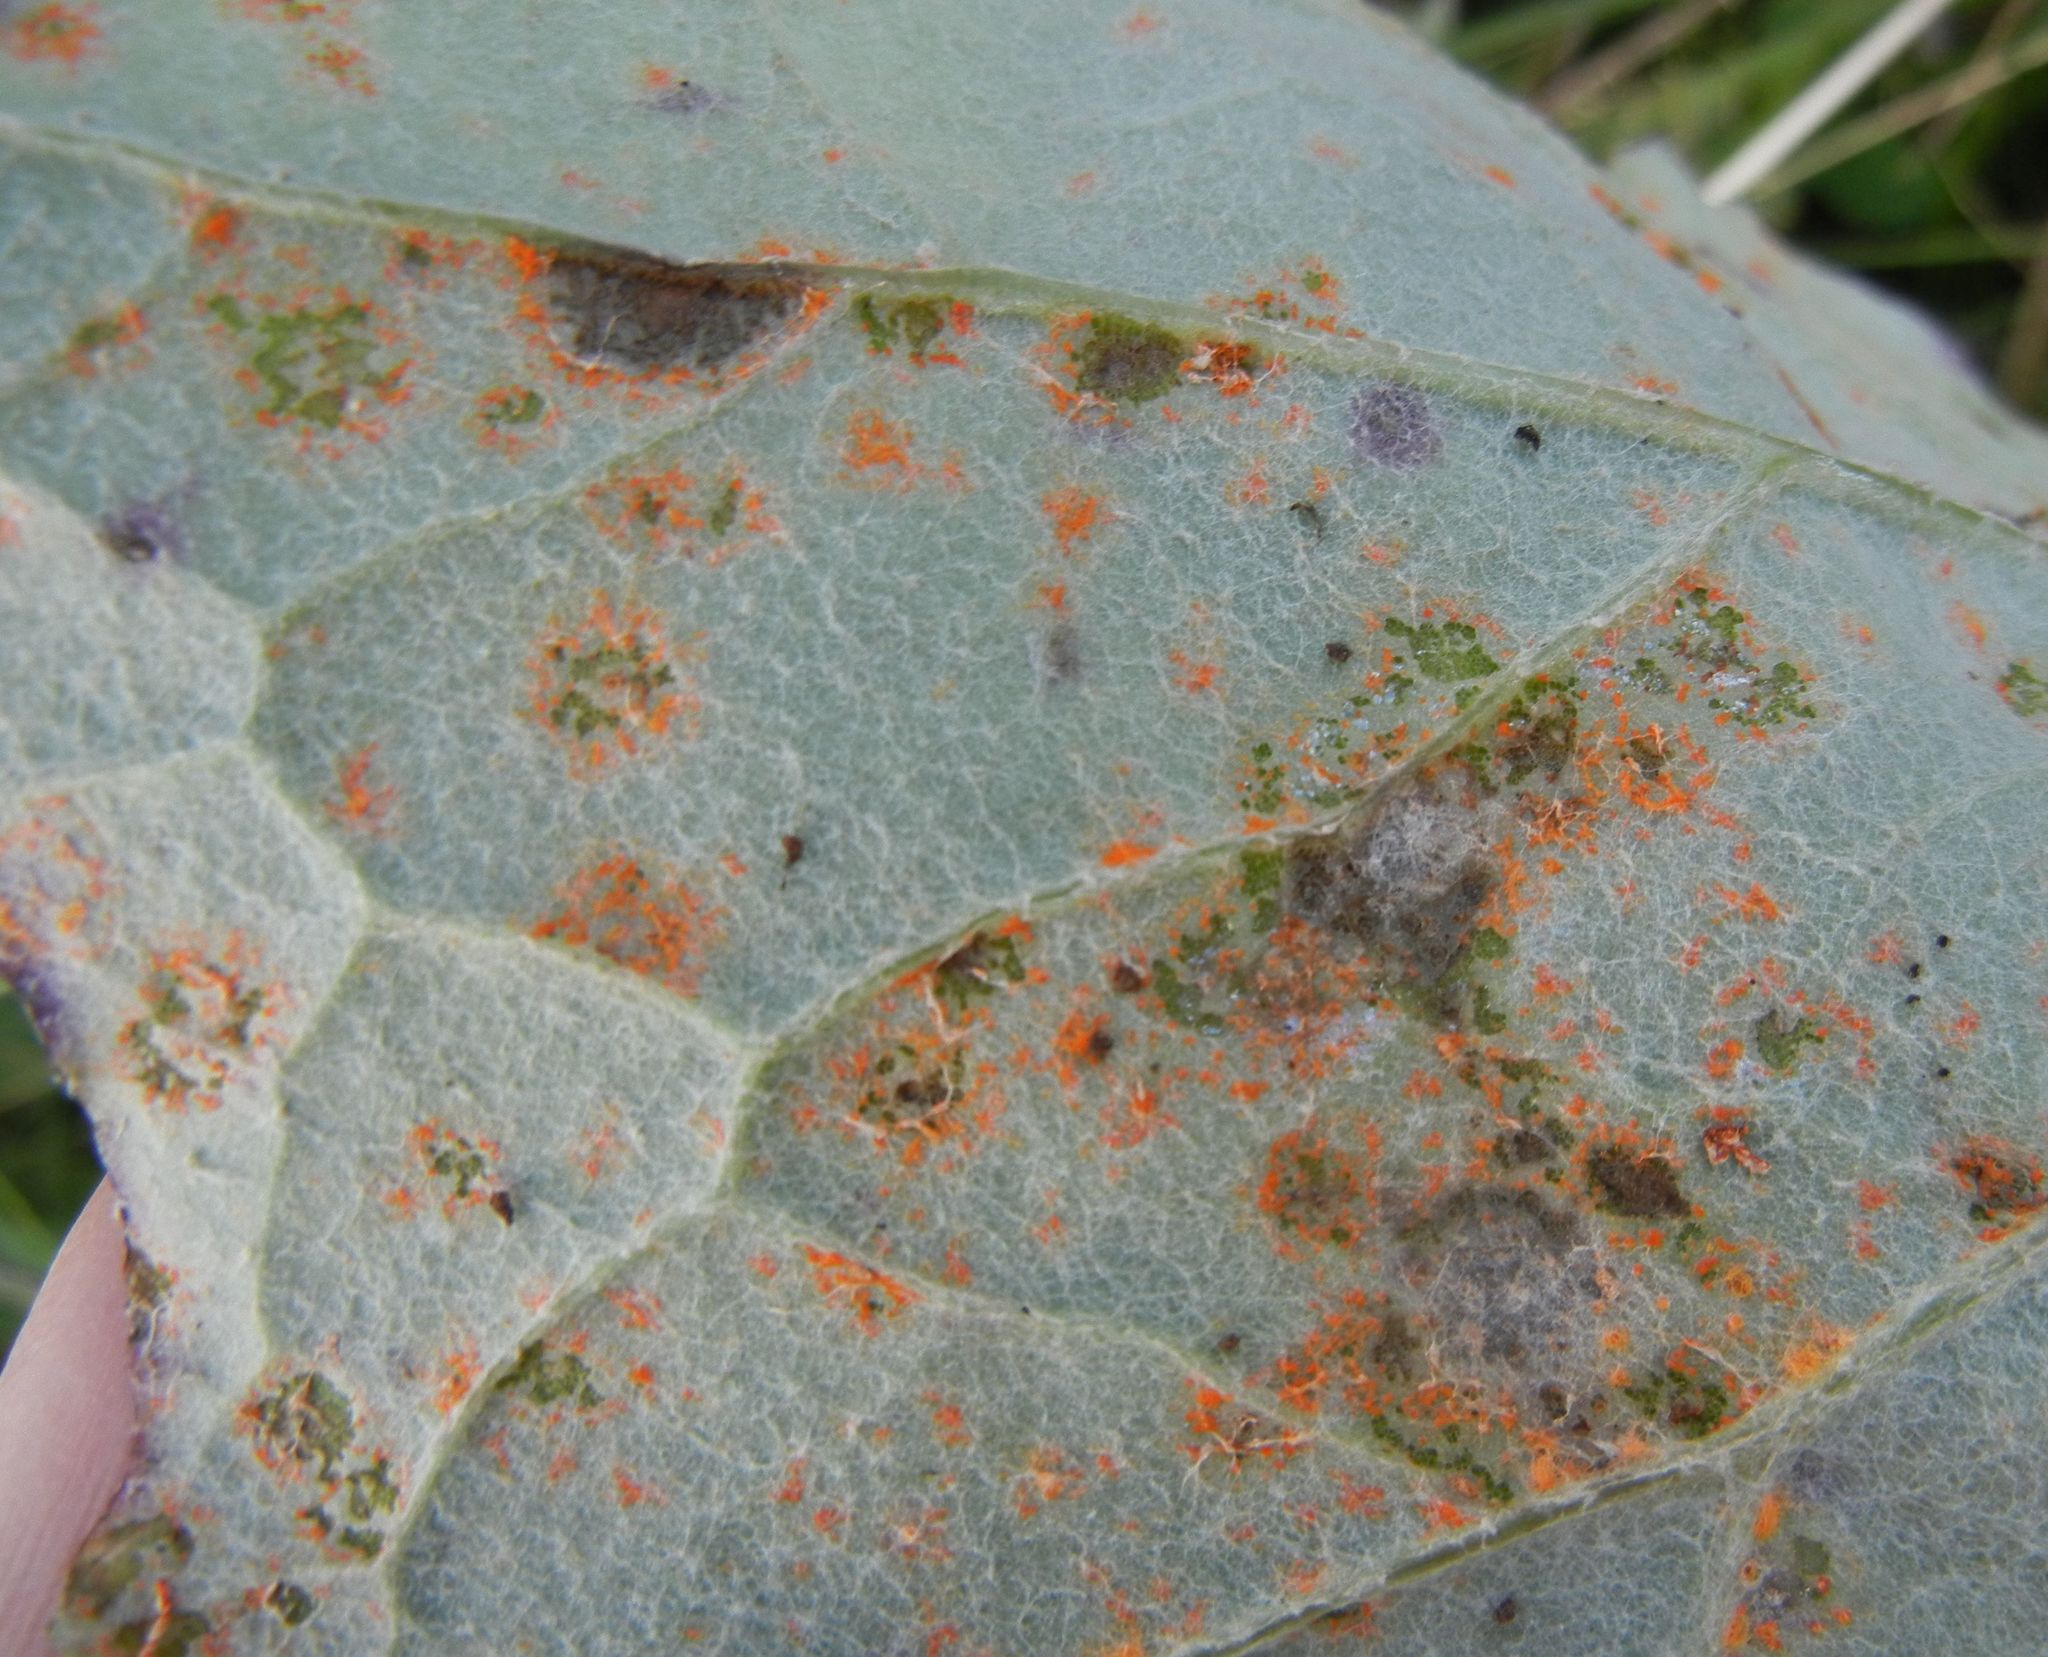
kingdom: Fungi
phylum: Basidiomycota
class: Pucciniomycetes
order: Pucciniales
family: Pucciniaceae
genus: Puccinia
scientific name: Puccinia poarum
